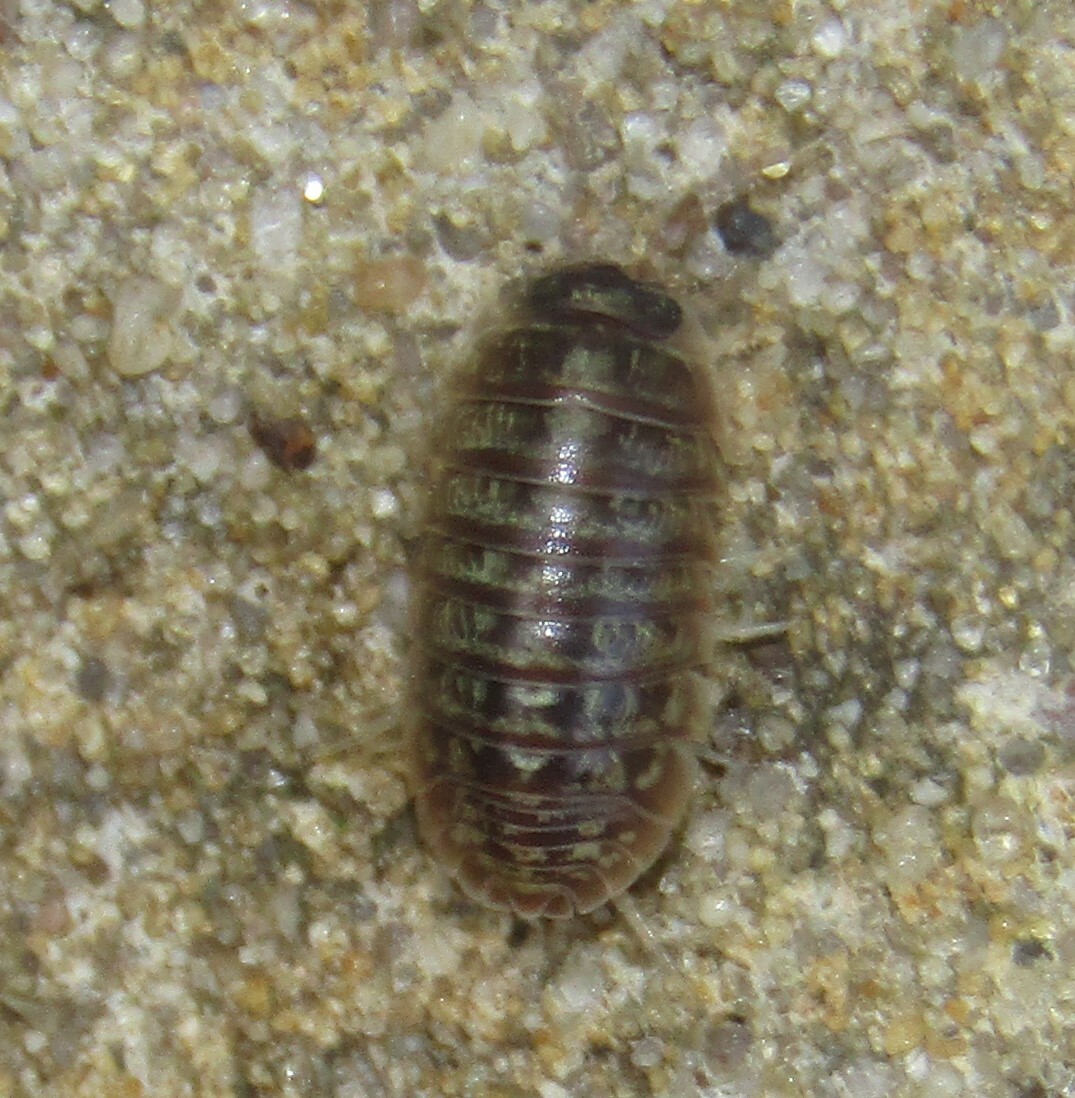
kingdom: Animalia
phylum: Arthropoda
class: Malacostraca
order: Isopoda
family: Armadillidiidae
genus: Armadillidium
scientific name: Armadillidium versicolor
